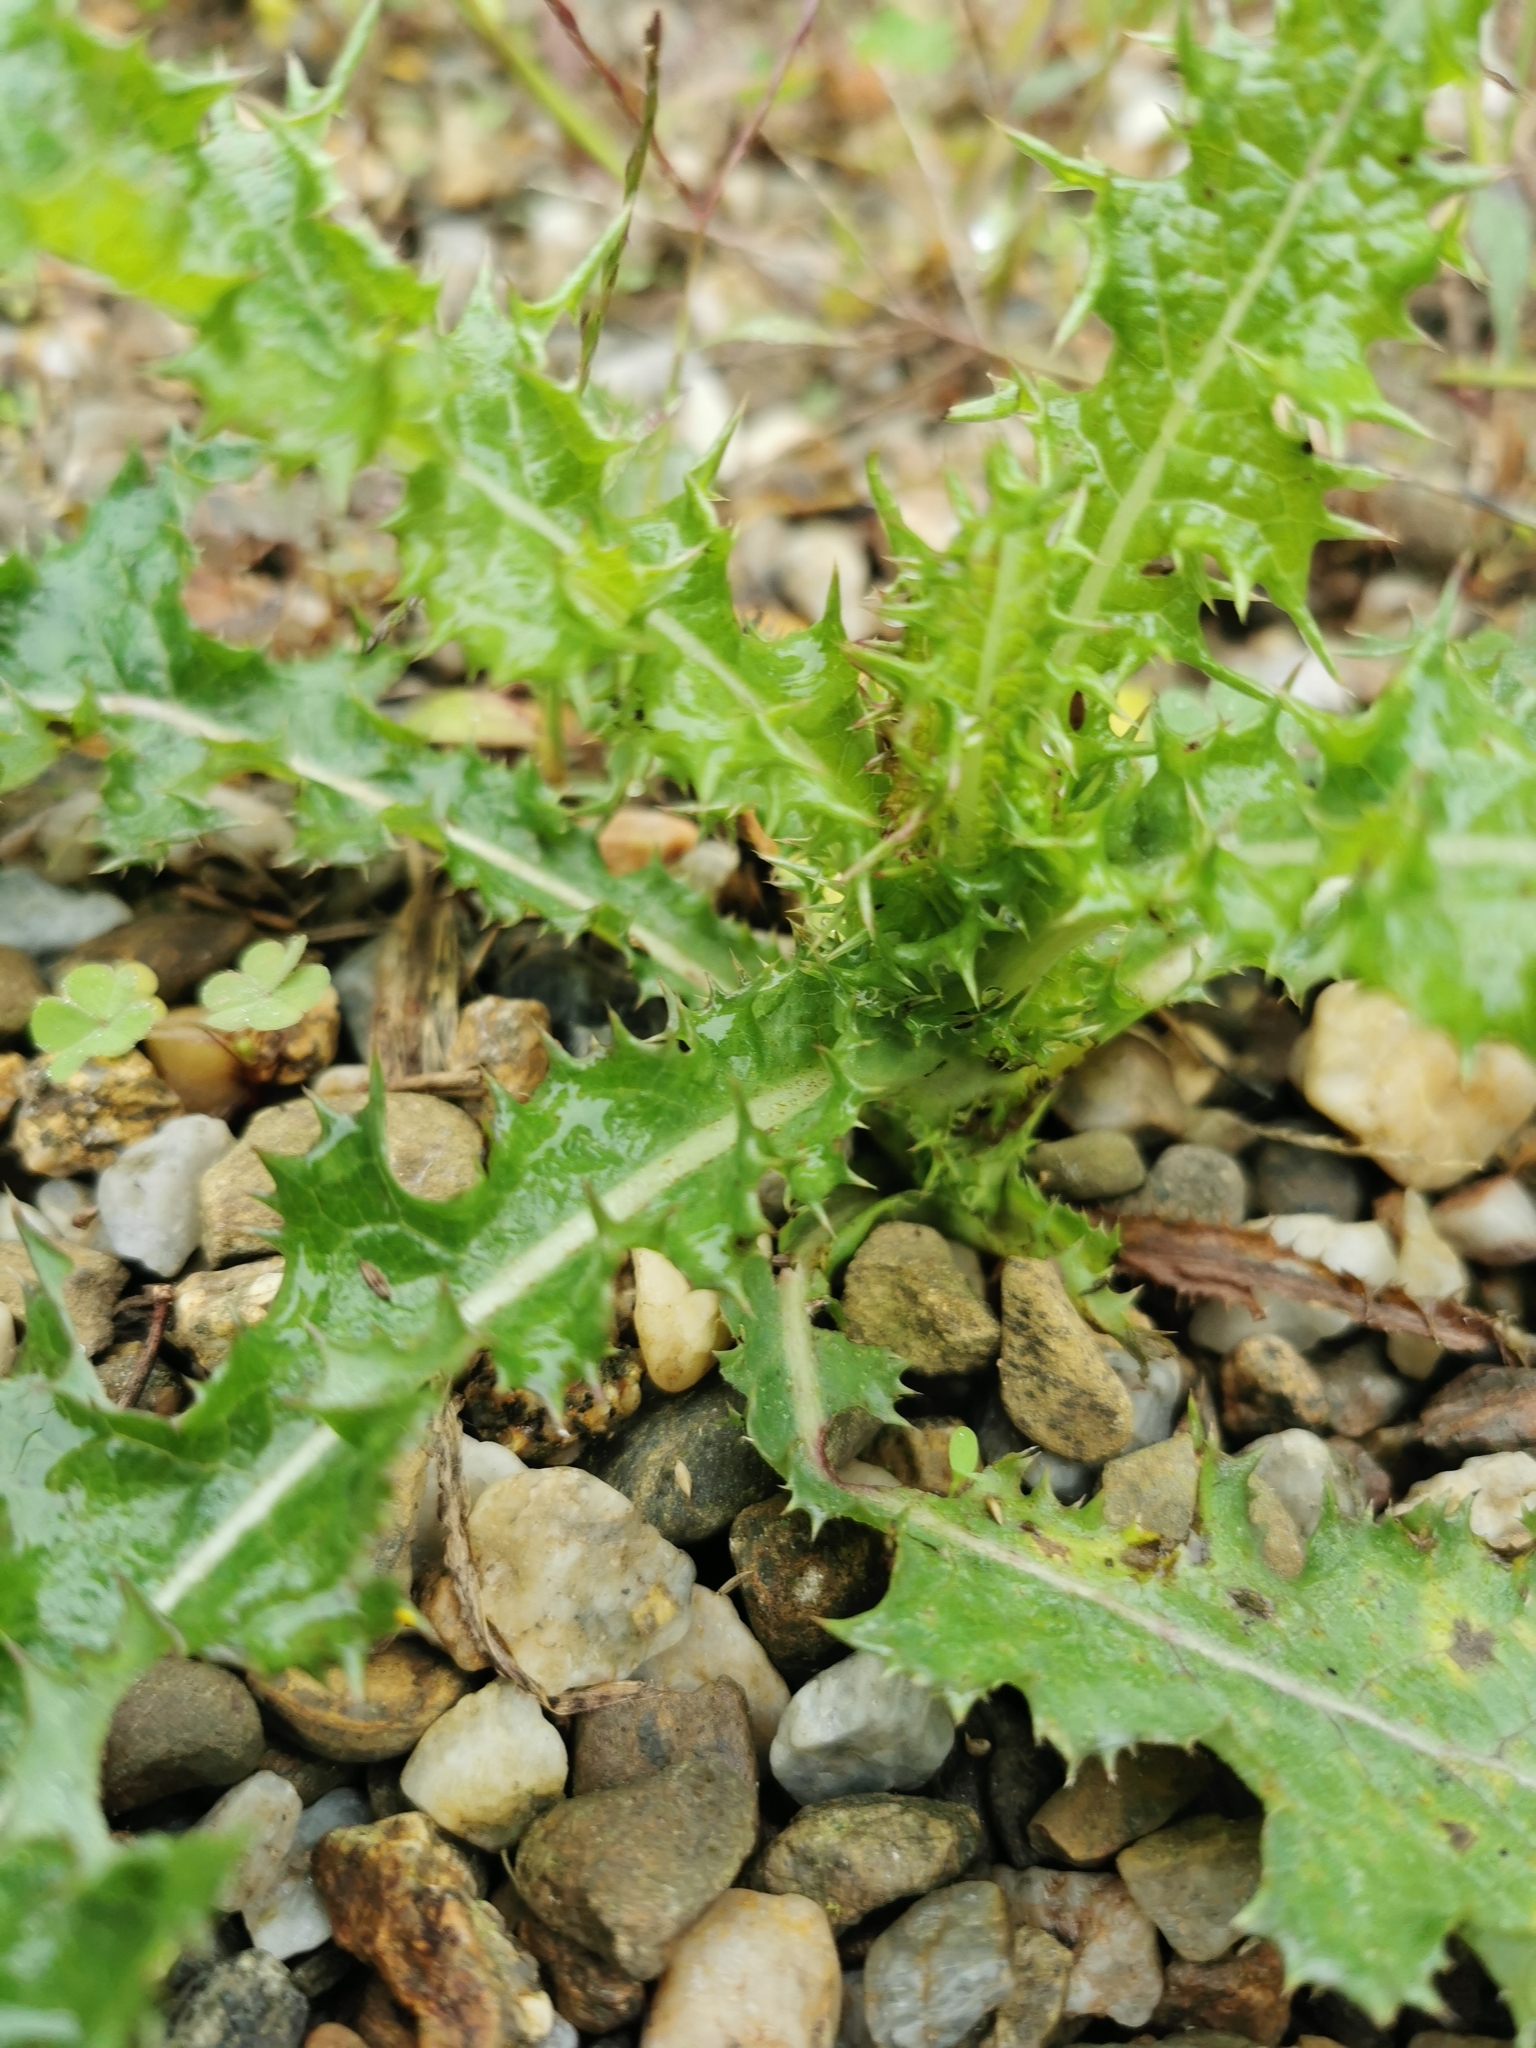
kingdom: Plantae
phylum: Tracheophyta
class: Magnoliopsida
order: Asterales
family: Asteraceae
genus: Sonchus
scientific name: Sonchus asper
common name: Prickly sow-thistle
